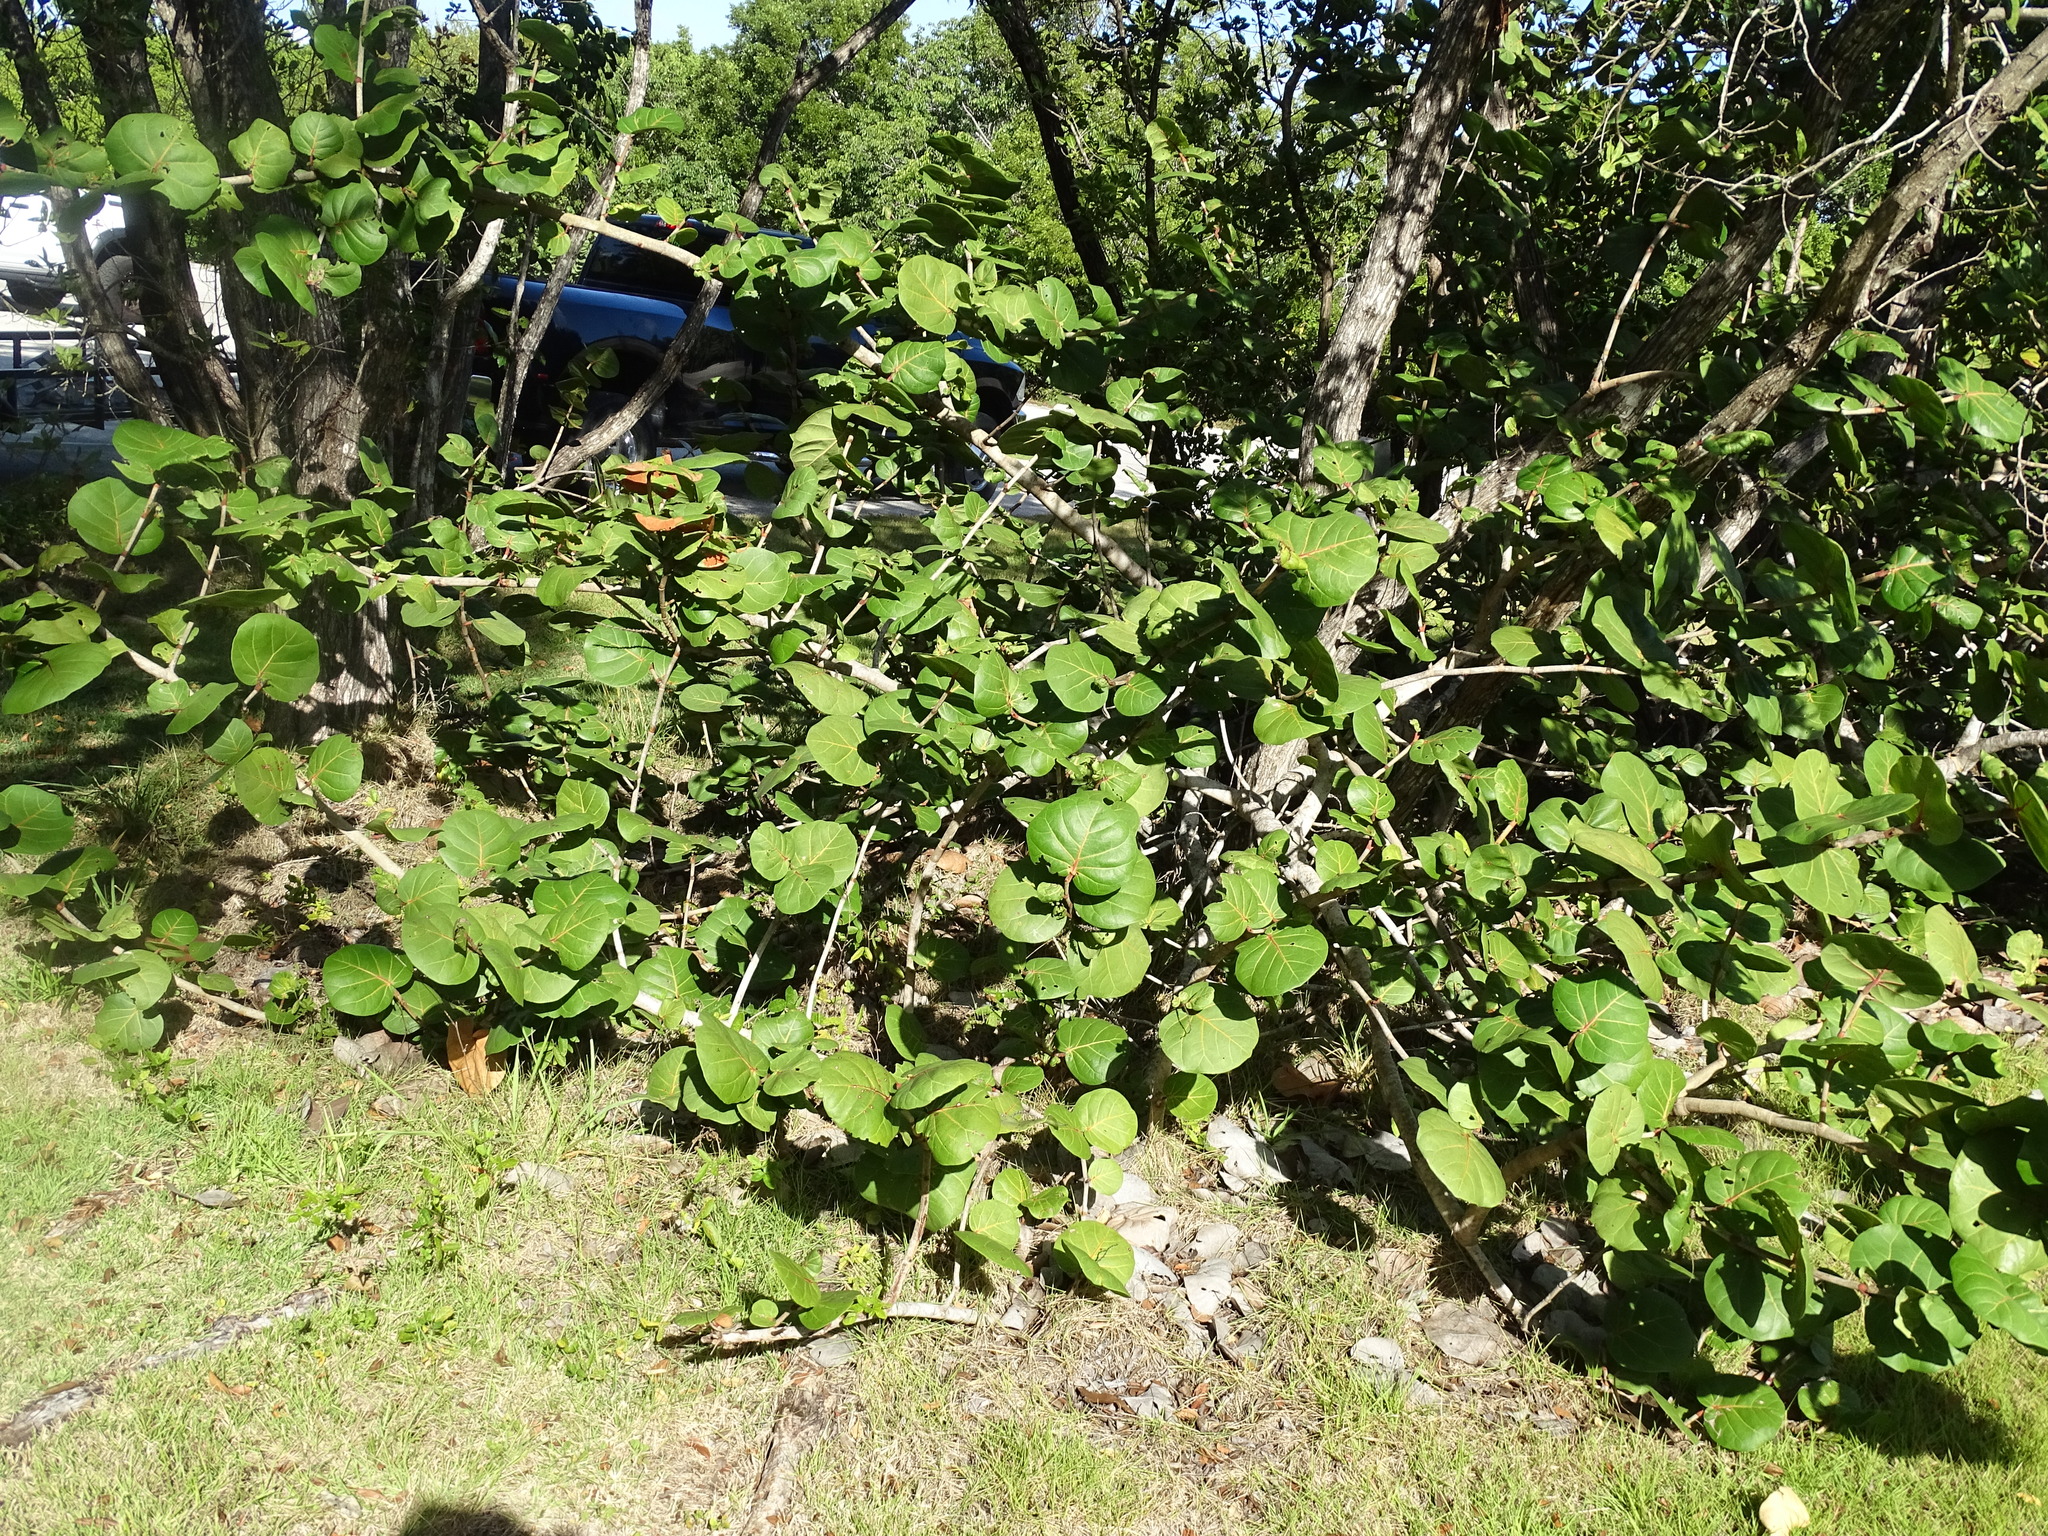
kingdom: Plantae
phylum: Tracheophyta
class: Magnoliopsida
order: Caryophyllales
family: Polygonaceae
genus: Coccoloba
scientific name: Coccoloba uvifera
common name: Seagrape
